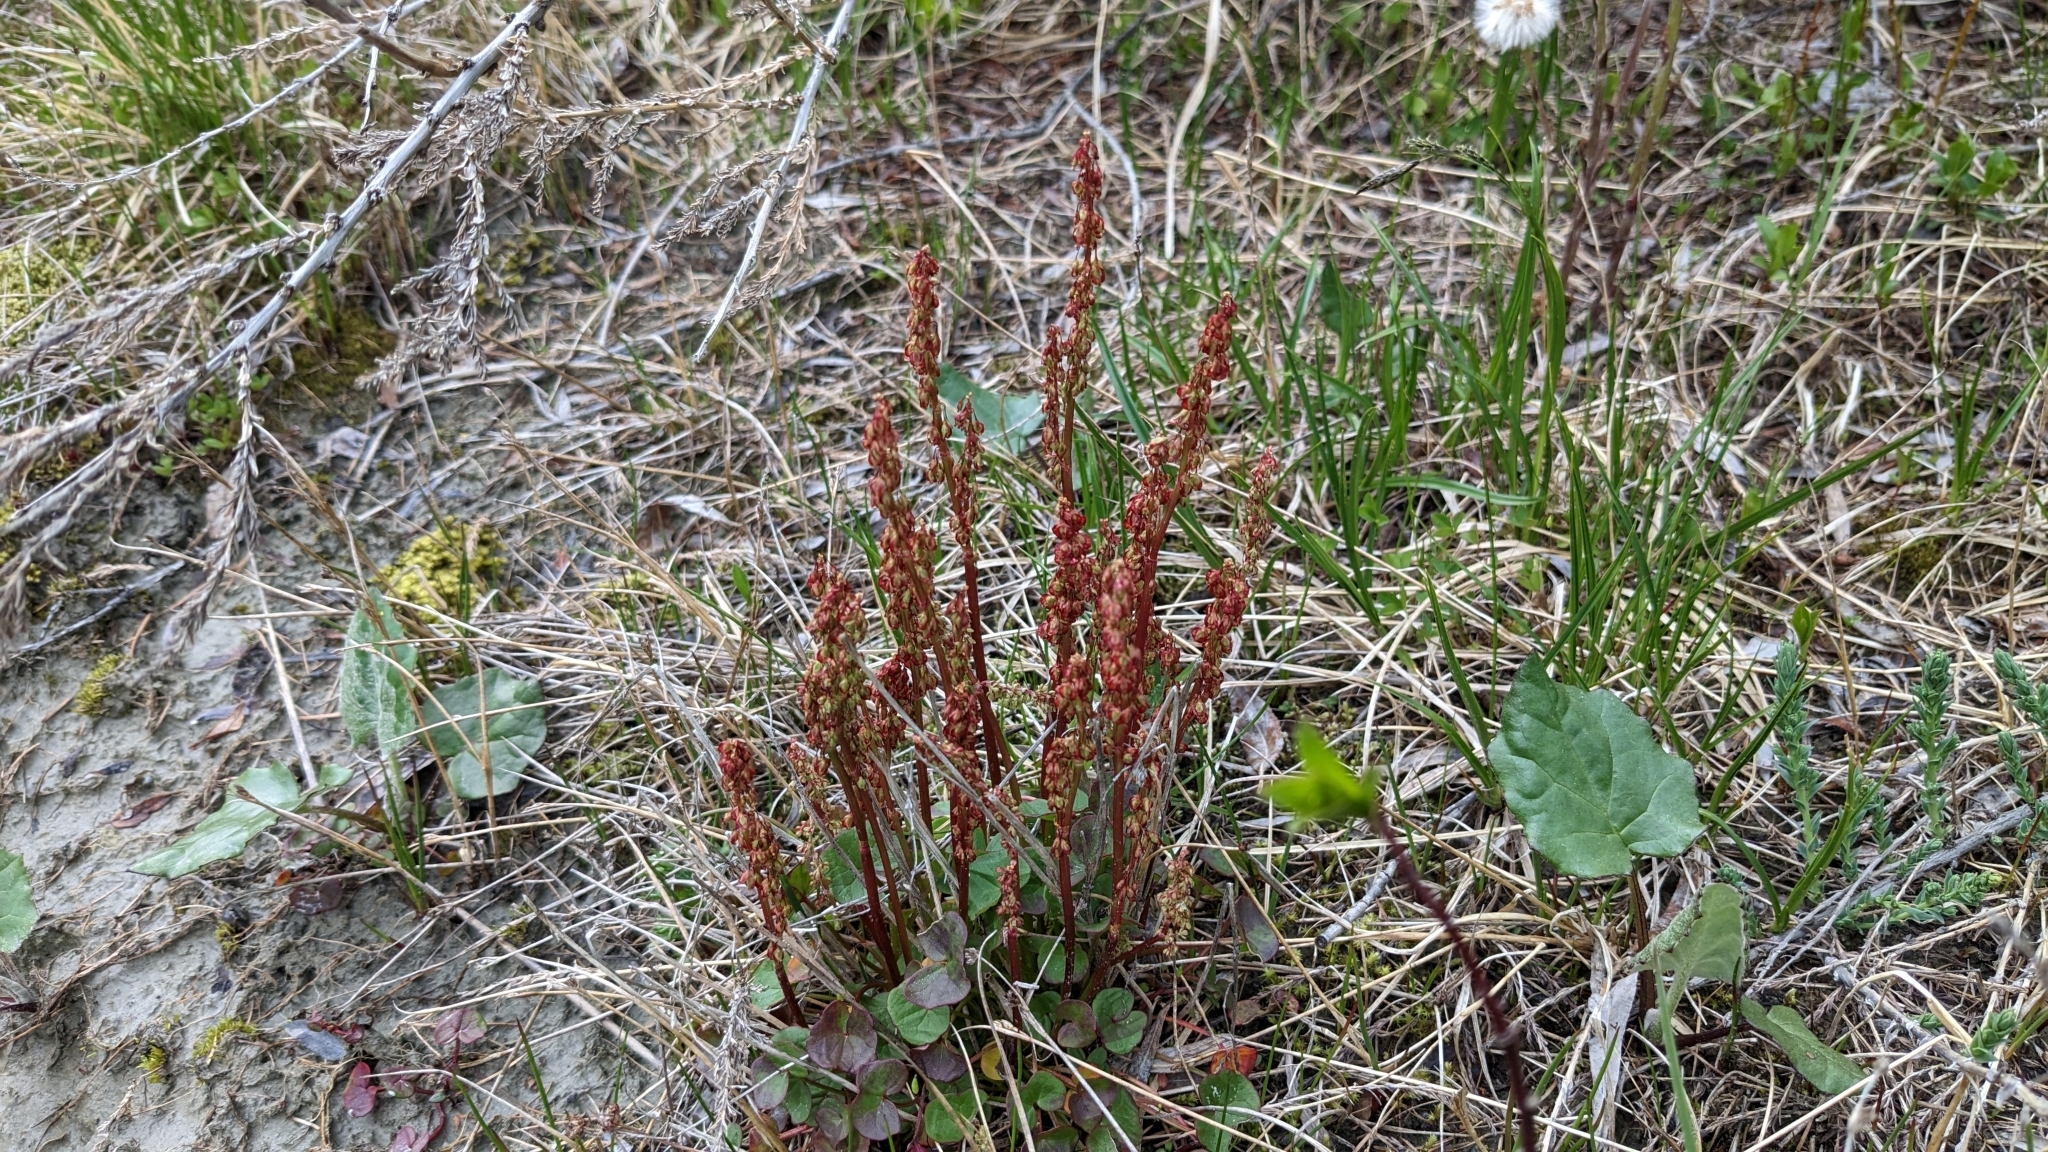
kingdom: Plantae
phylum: Tracheophyta
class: Magnoliopsida
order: Caryophyllales
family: Polygonaceae
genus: Oxyria
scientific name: Oxyria digyna
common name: Alpine mountain-sorrel
